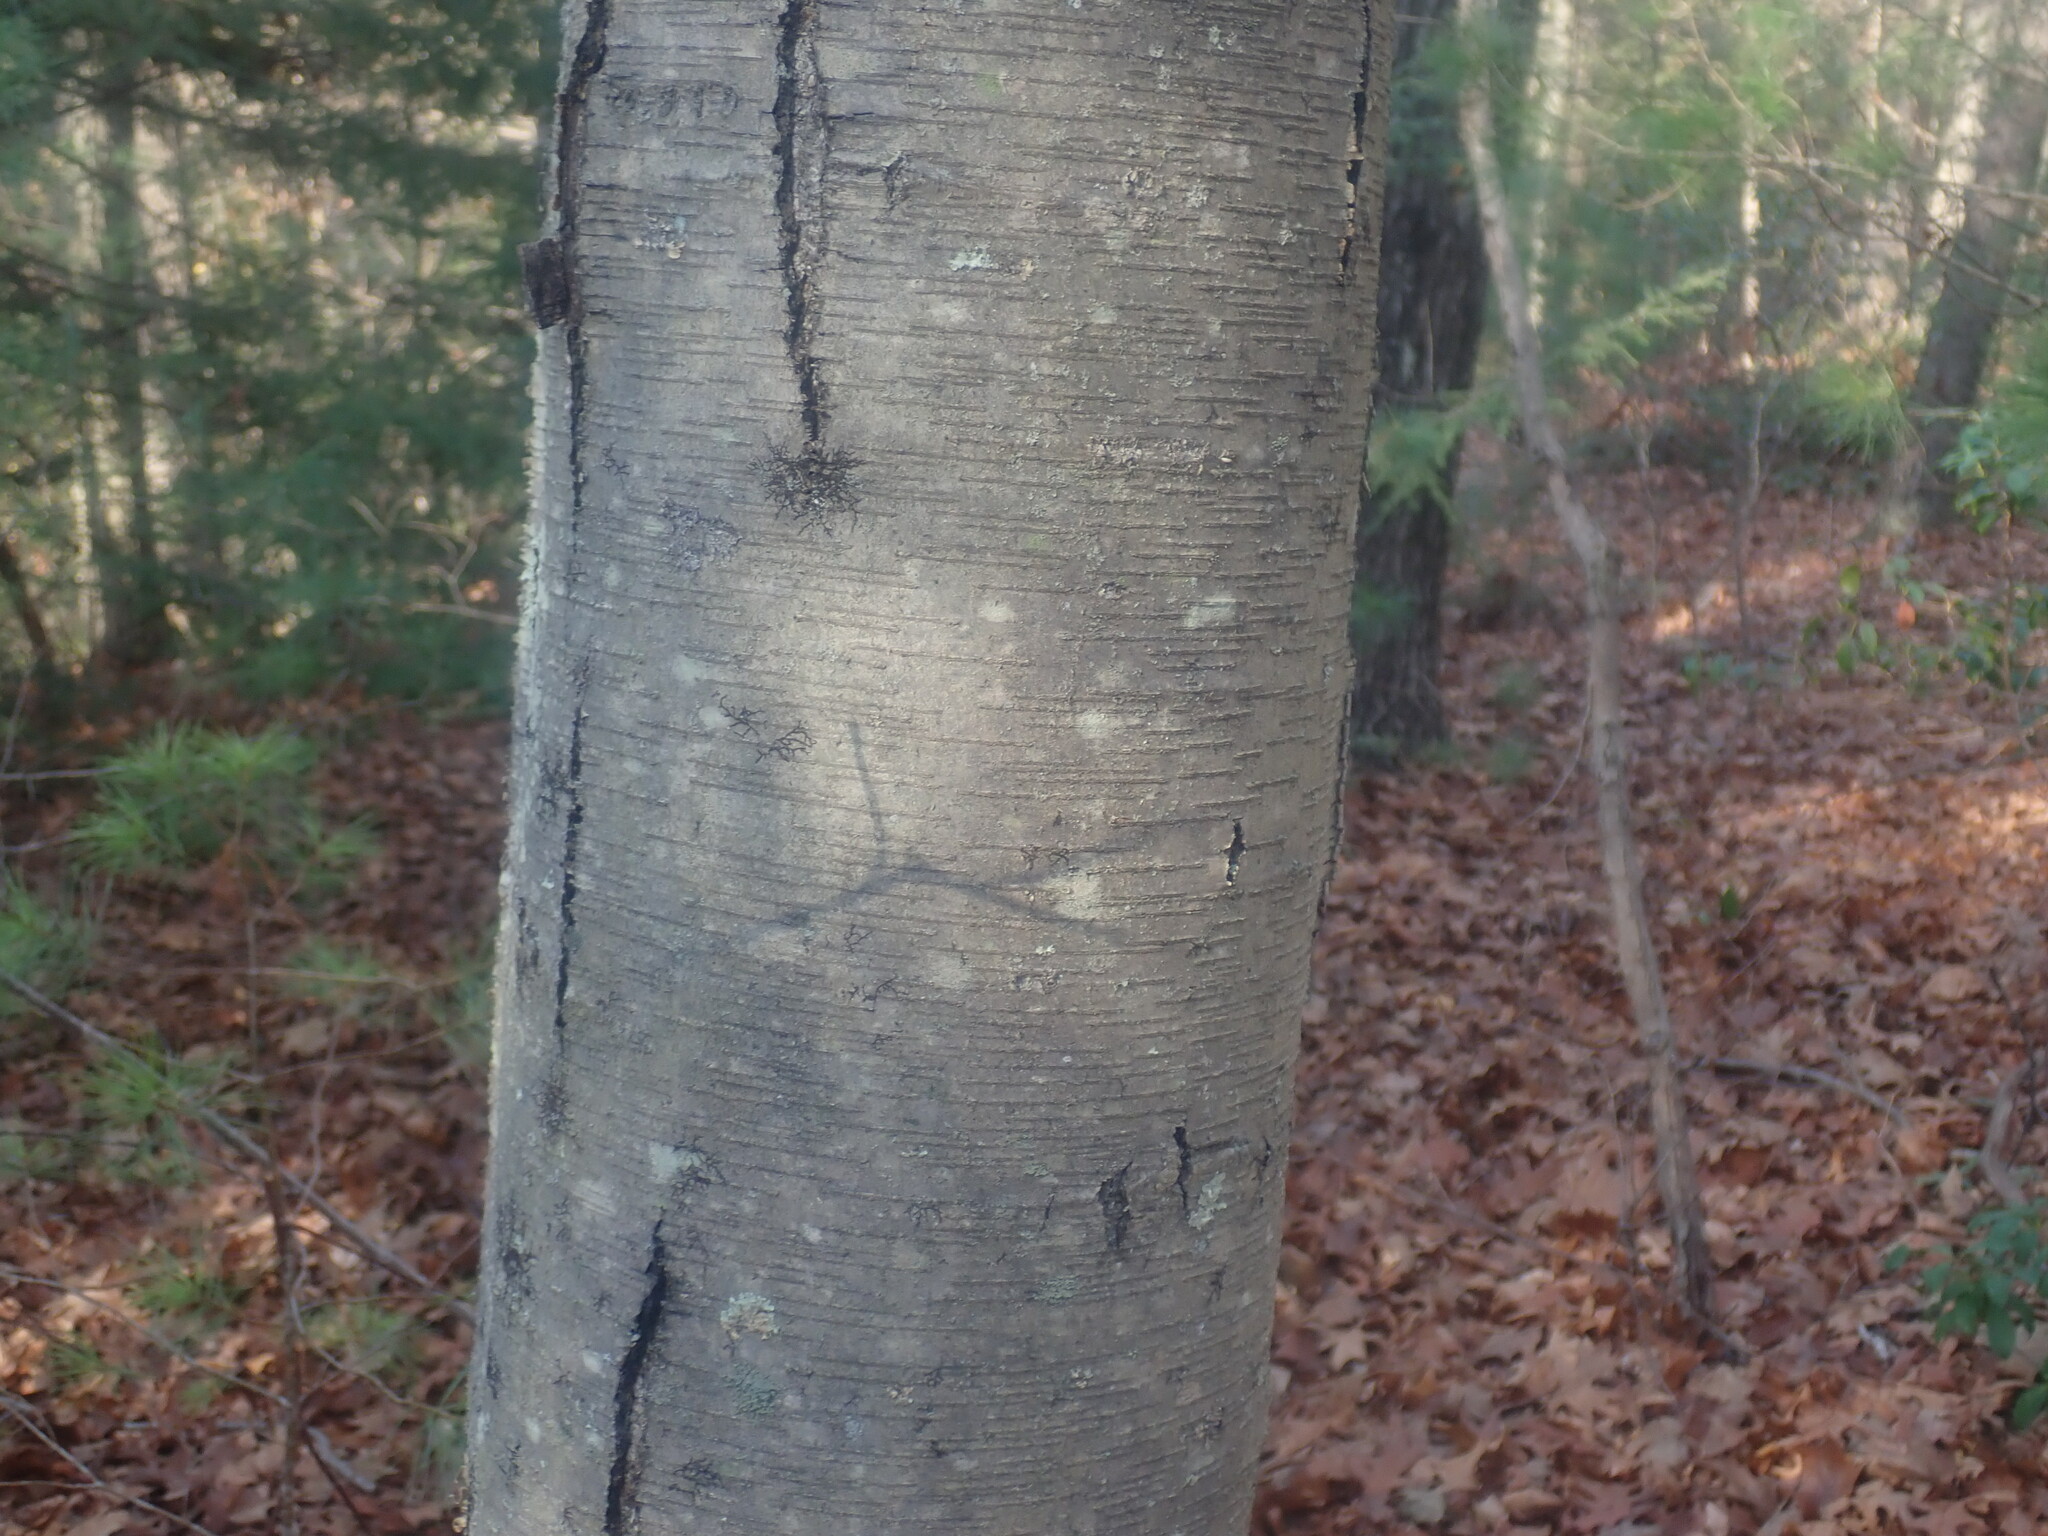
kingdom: Plantae
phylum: Tracheophyta
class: Magnoliopsida
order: Fagales
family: Betulaceae
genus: Betula
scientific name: Betula lenta
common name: Black birch
